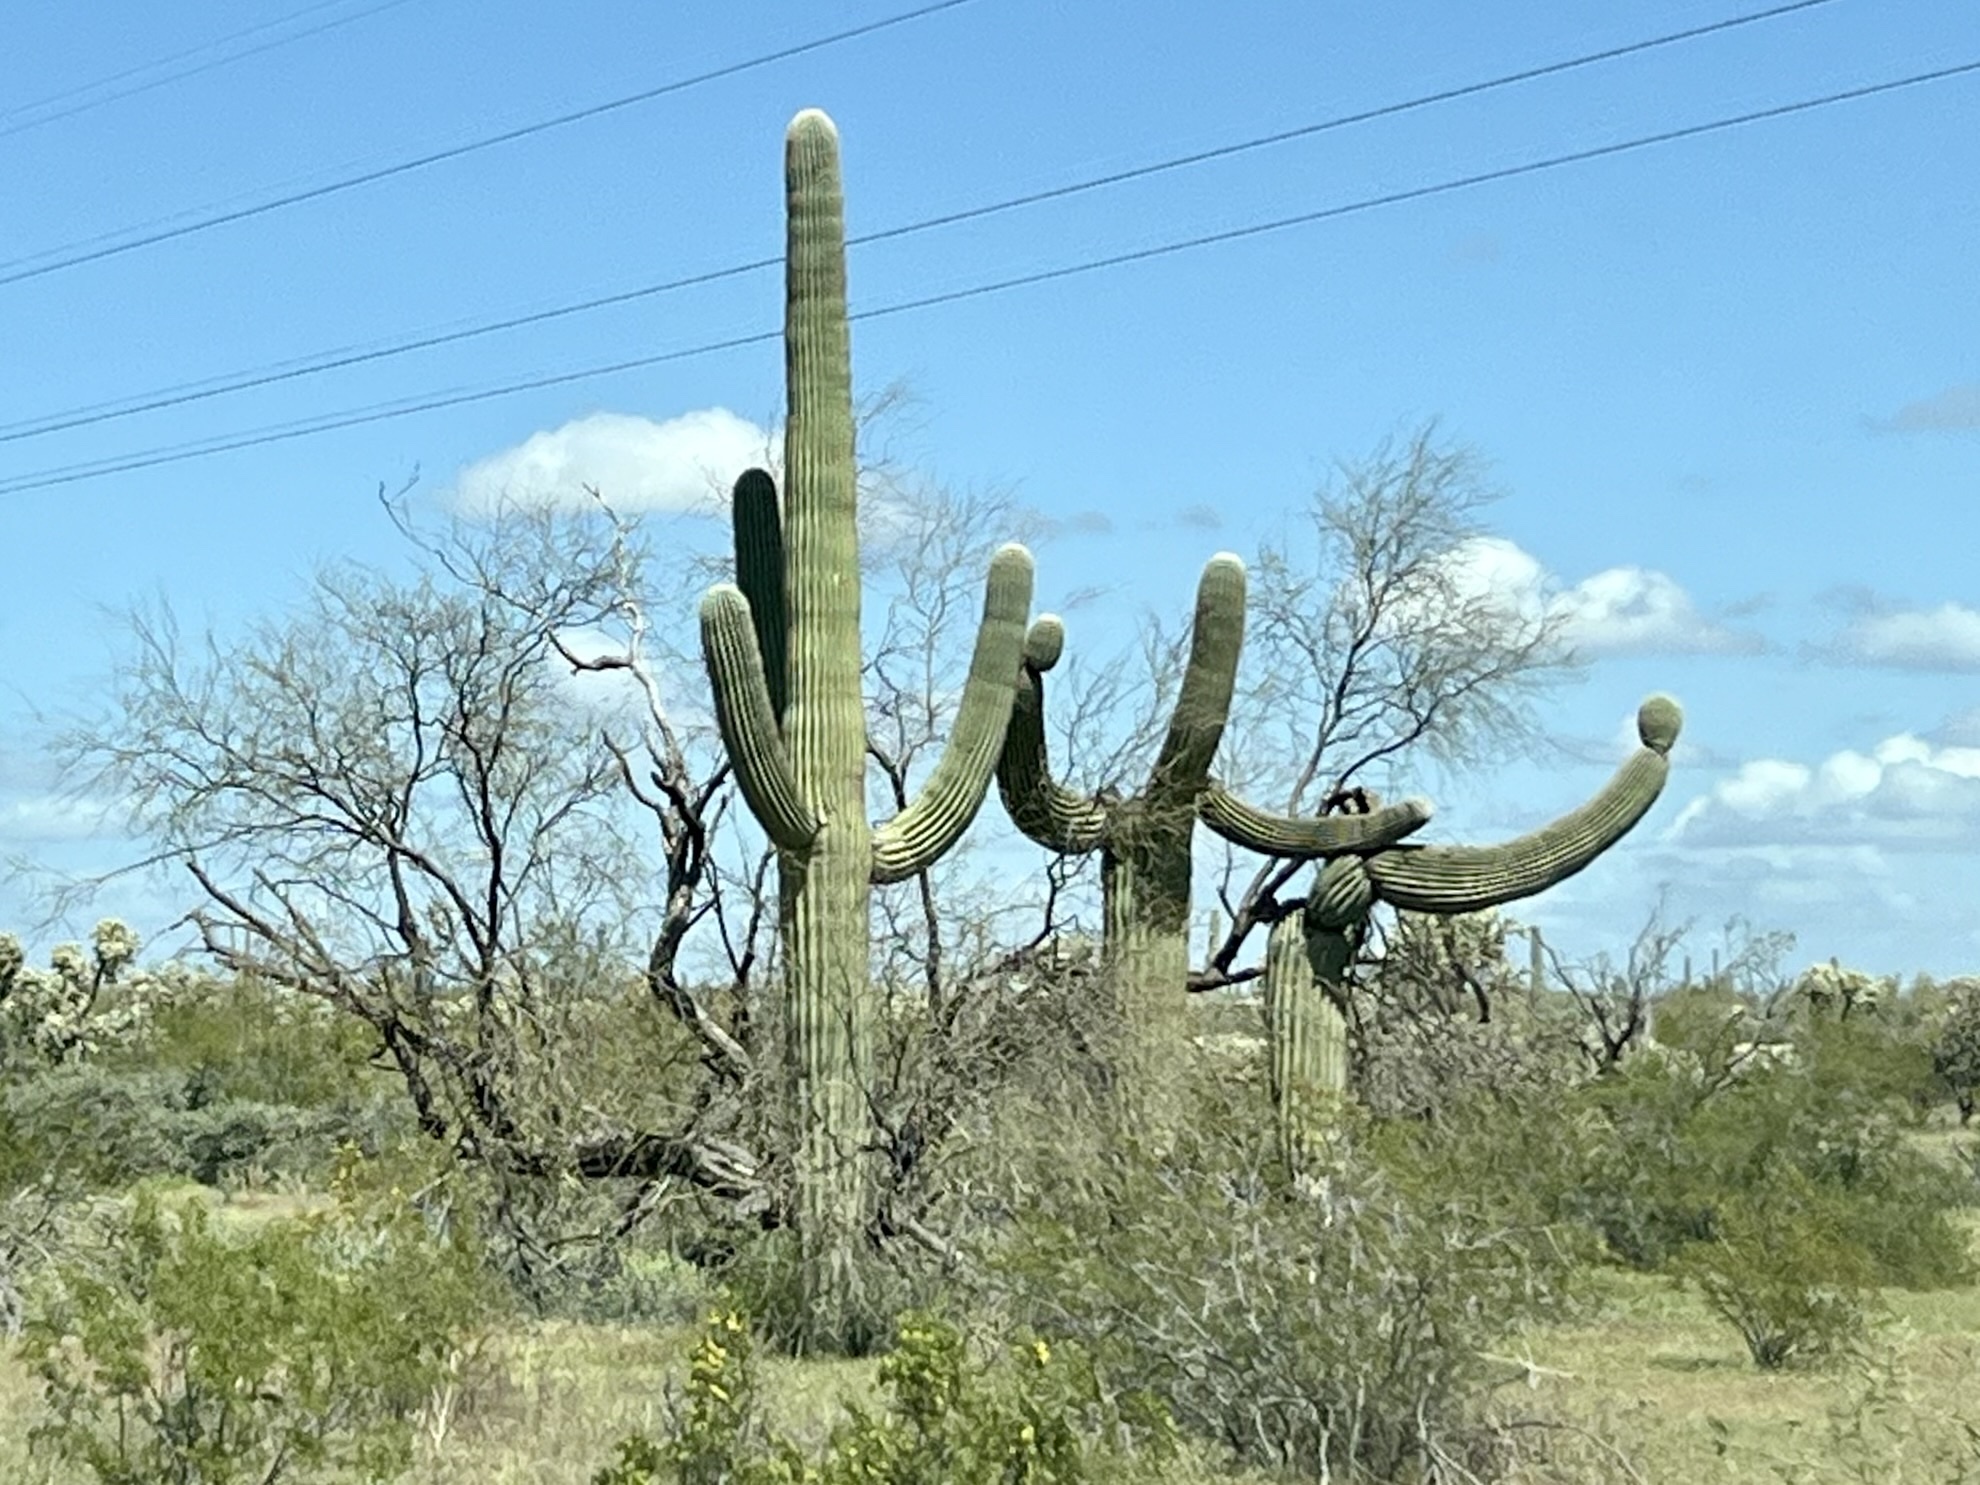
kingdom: Plantae
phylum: Tracheophyta
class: Magnoliopsida
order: Caryophyllales
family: Cactaceae
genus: Carnegiea
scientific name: Carnegiea gigantea
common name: Saguaro
